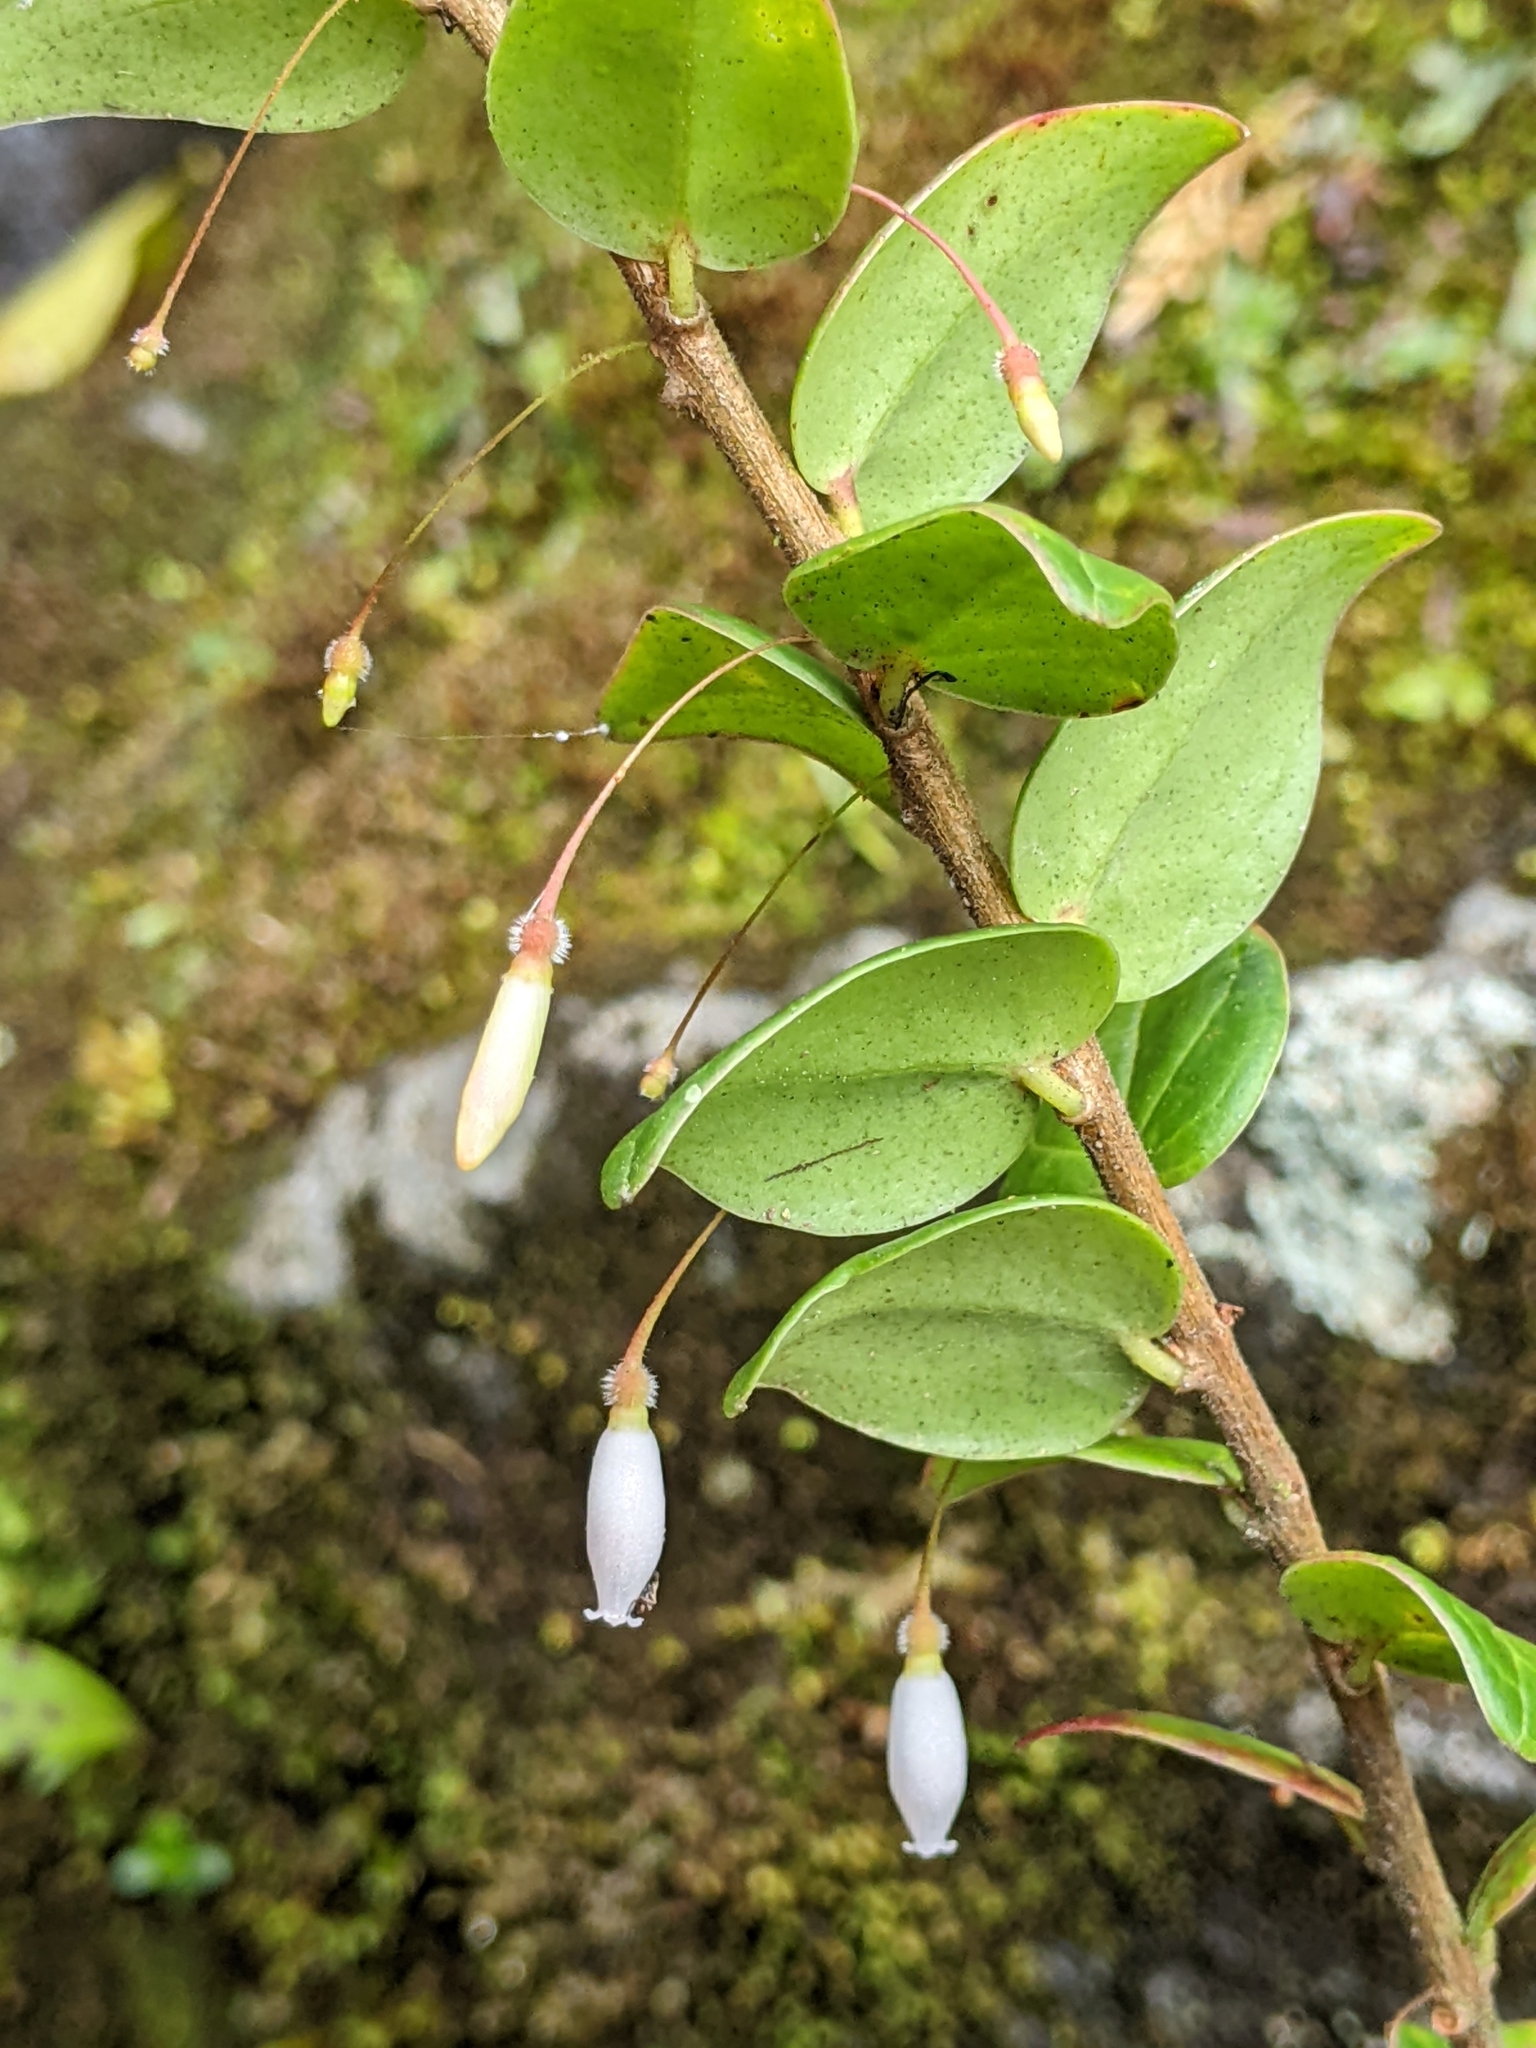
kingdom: Plantae
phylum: Tracheophyta
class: Magnoliopsida
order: Ericales
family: Ericaceae
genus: Sphyrospermum
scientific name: Sphyrospermum buxifolium
